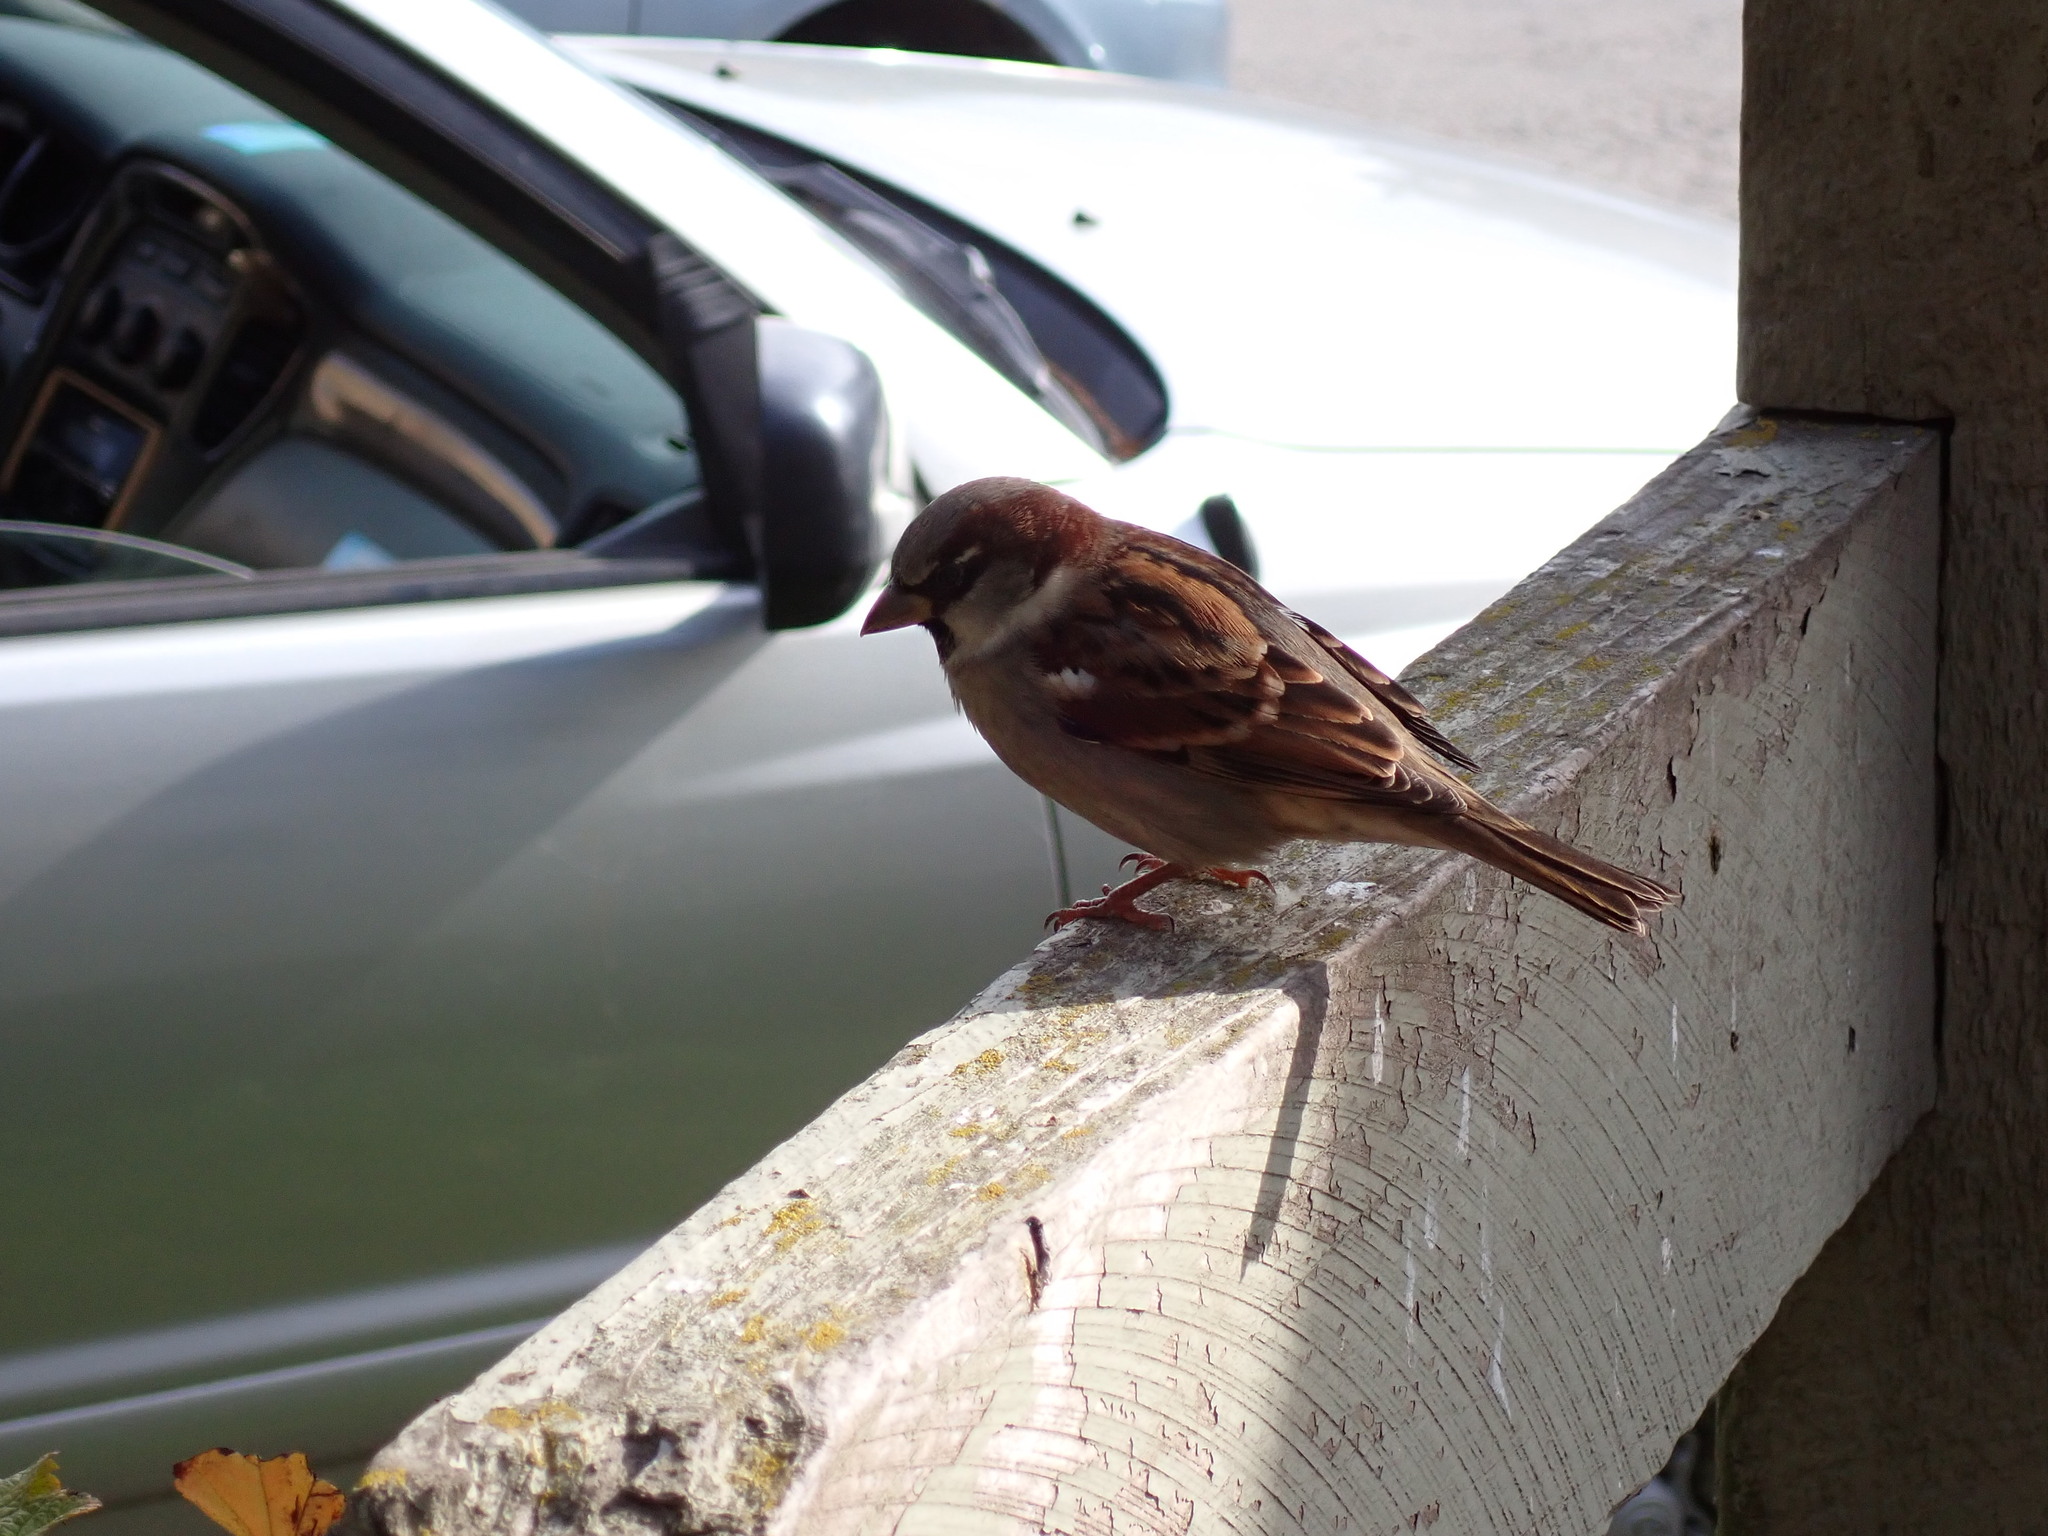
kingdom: Animalia
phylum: Chordata
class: Aves
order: Passeriformes
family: Passeridae
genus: Passer
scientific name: Passer domesticus
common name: House sparrow
